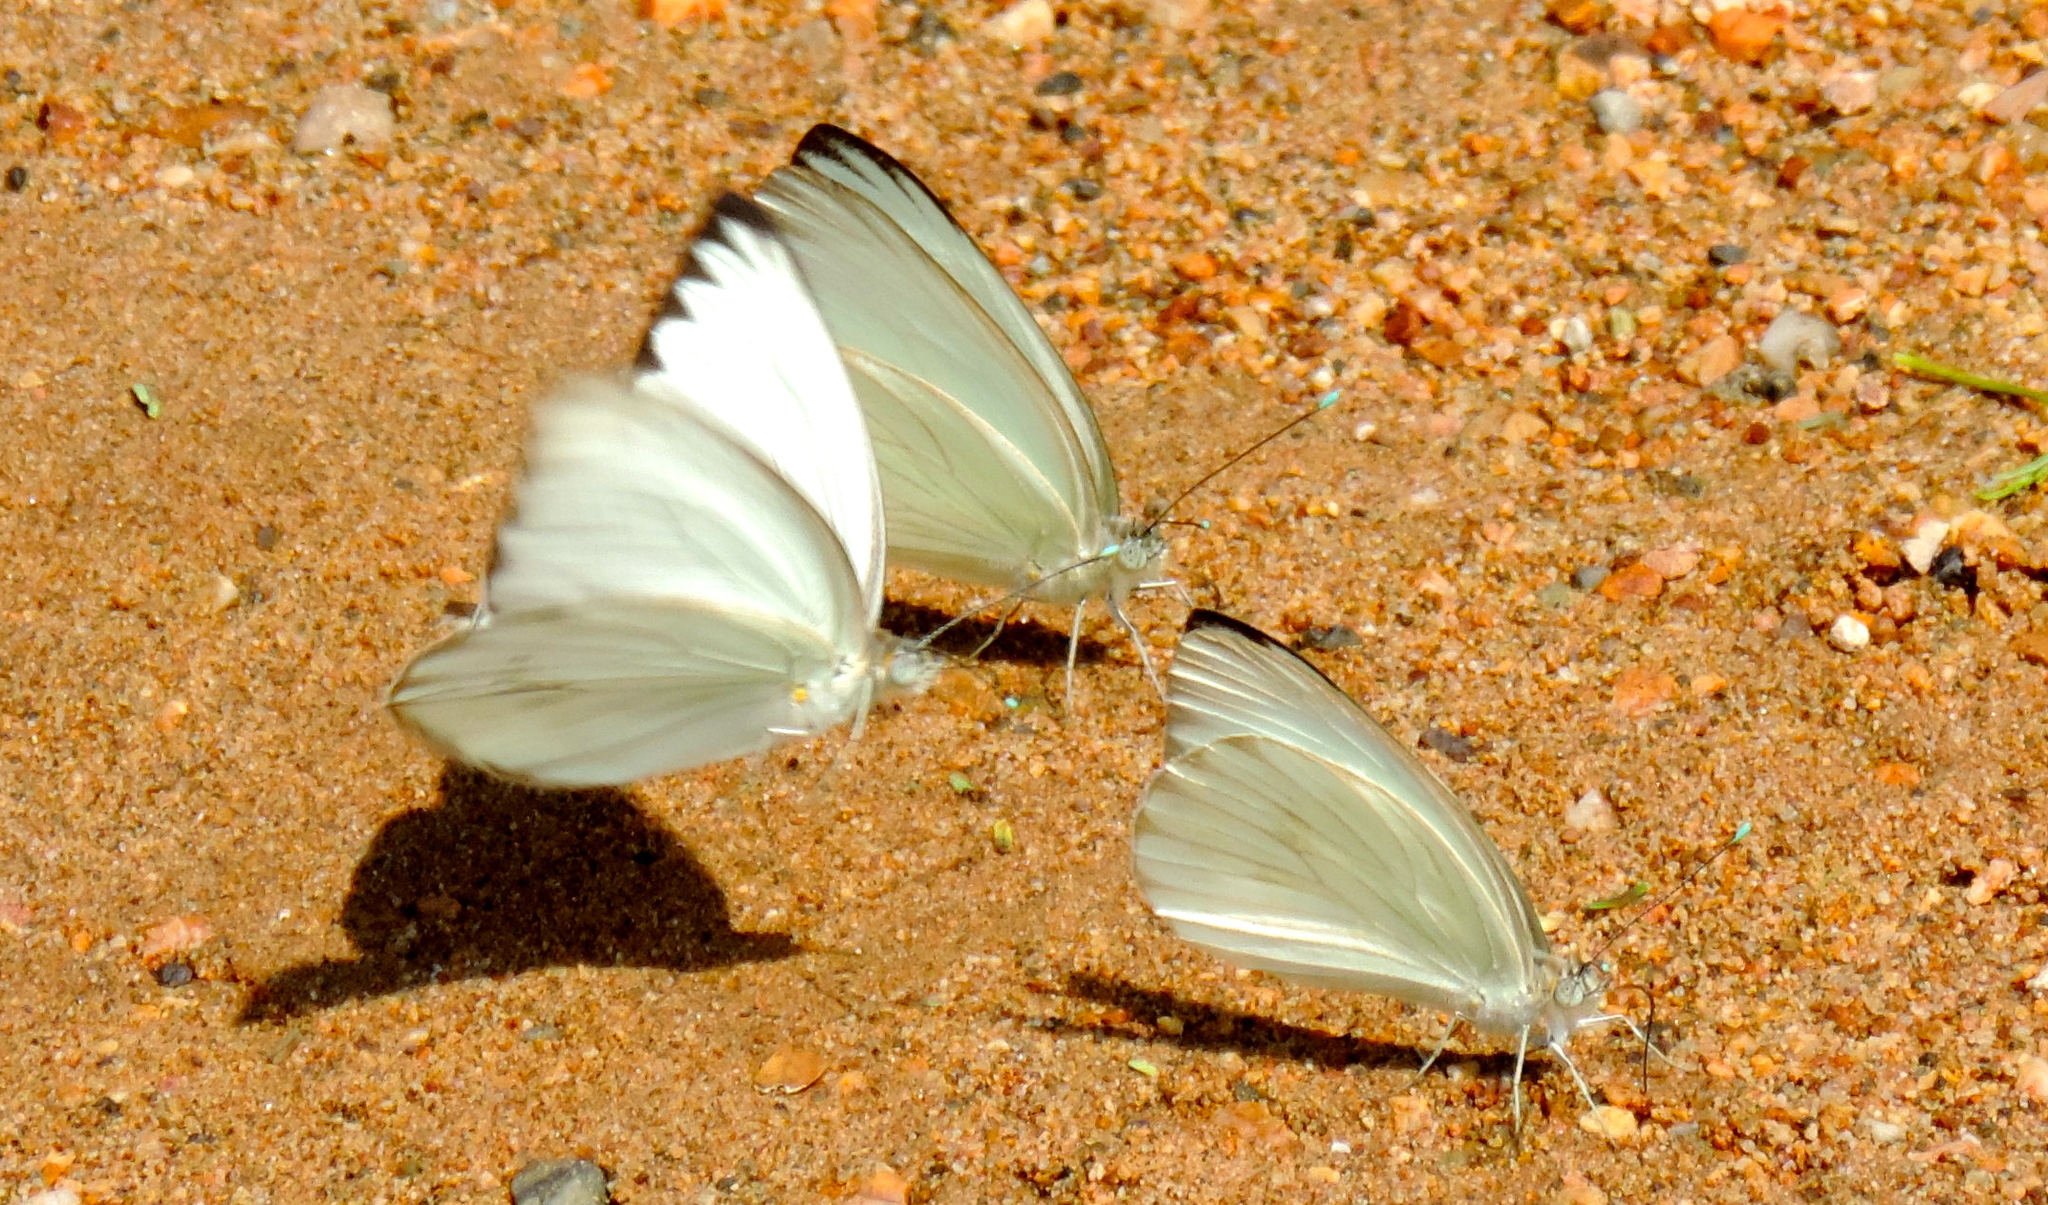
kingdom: Animalia
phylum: Arthropoda
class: Insecta
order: Lepidoptera
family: Pieridae
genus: Ascia
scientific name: Ascia monuste
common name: Great southern white
